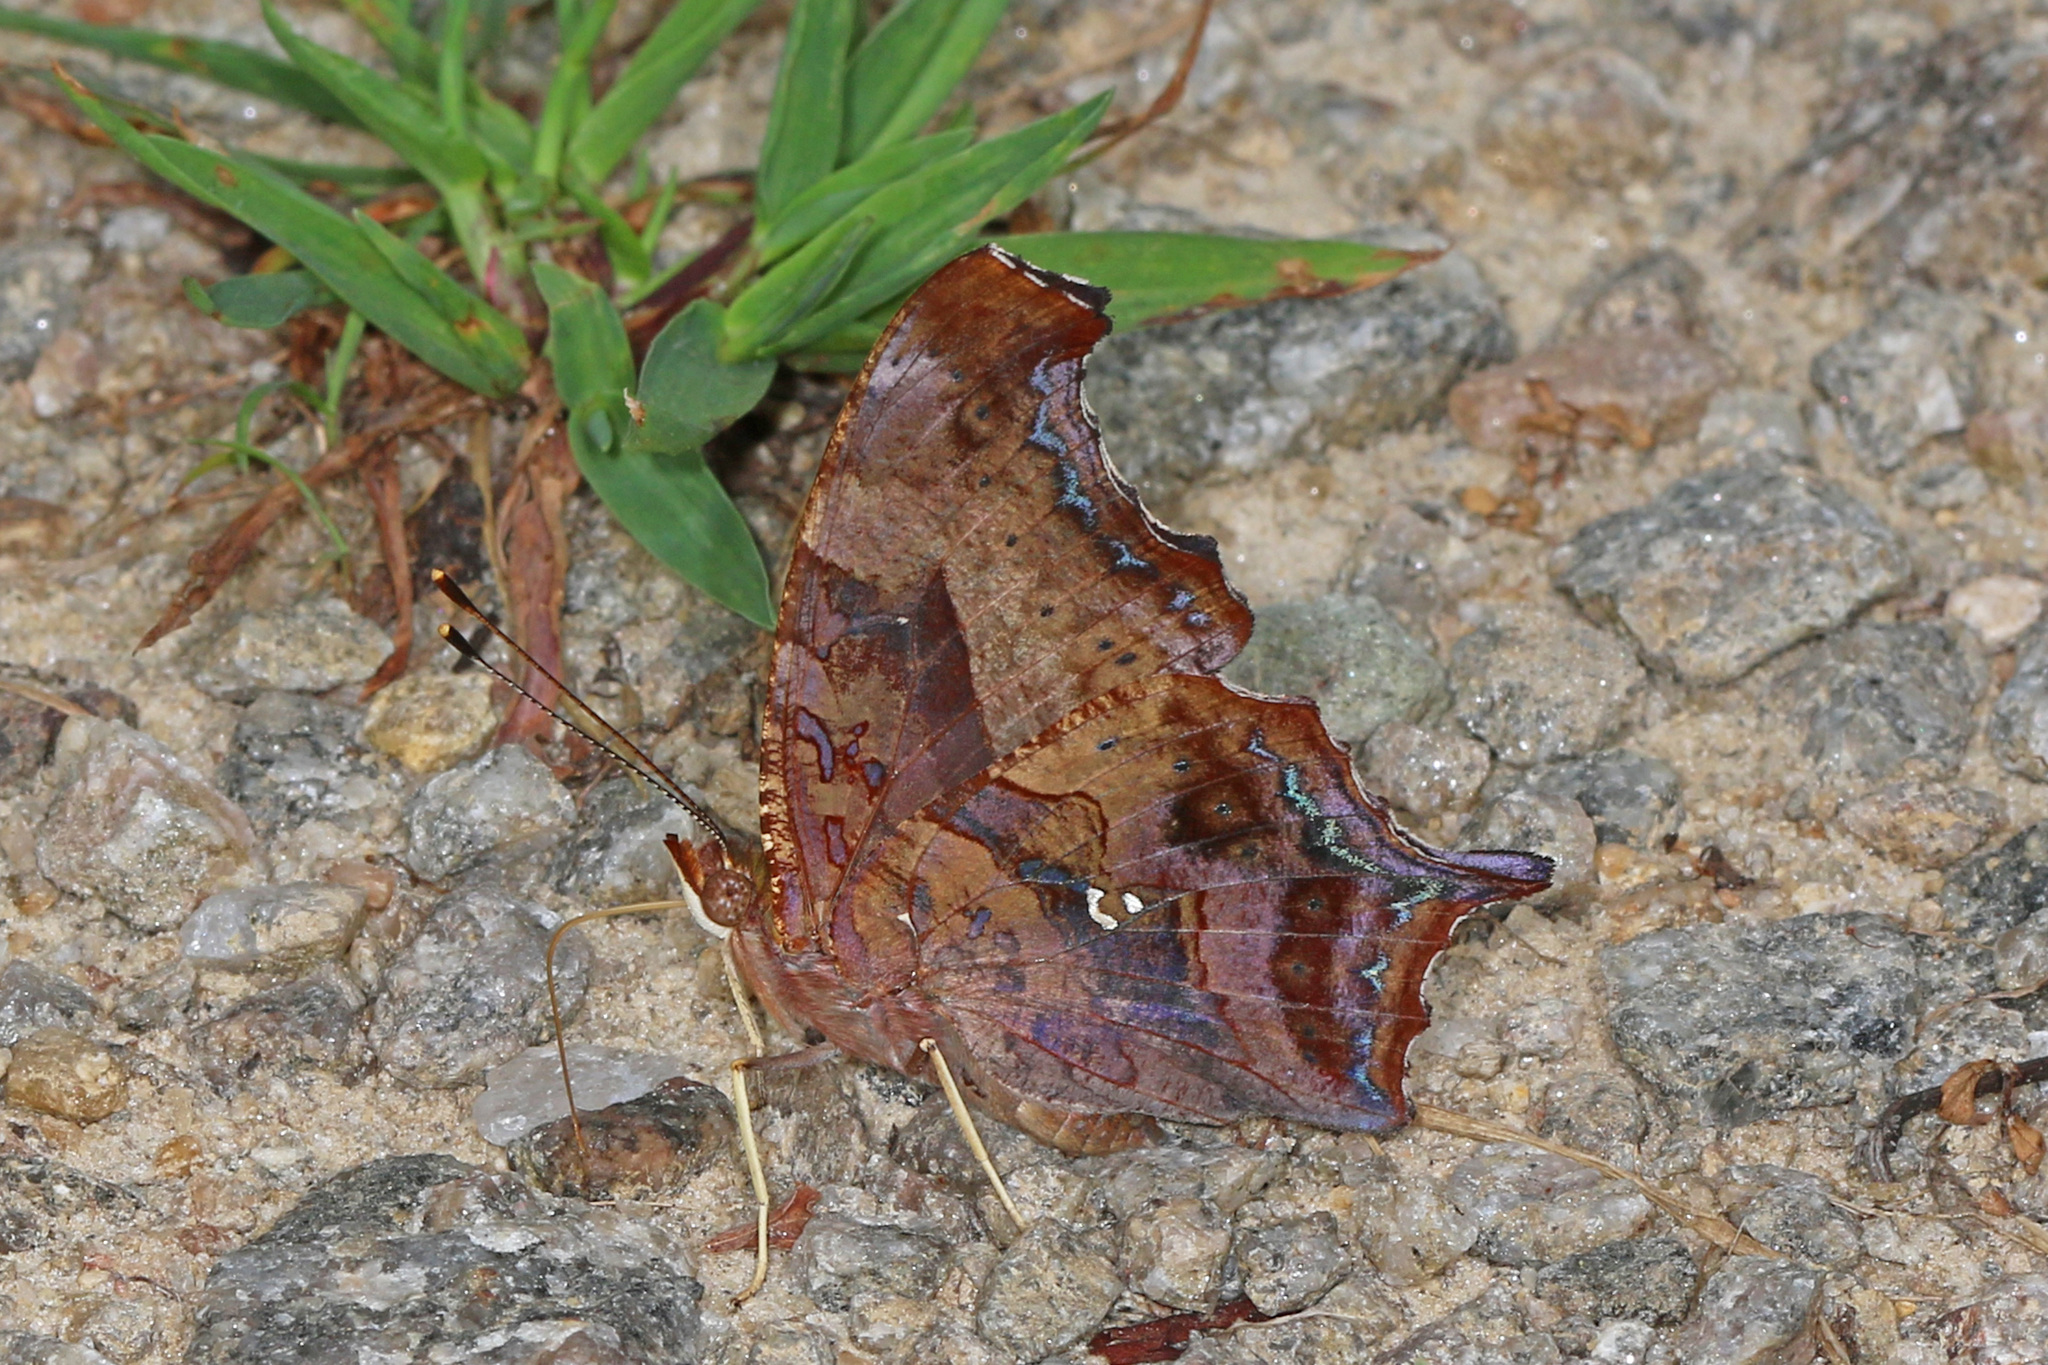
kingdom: Animalia
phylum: Arthropoda
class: Insecta
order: Lepidoptera
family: Nymphalidae
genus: Polygonia
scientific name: Polygonia interrogationis
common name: Question mark
